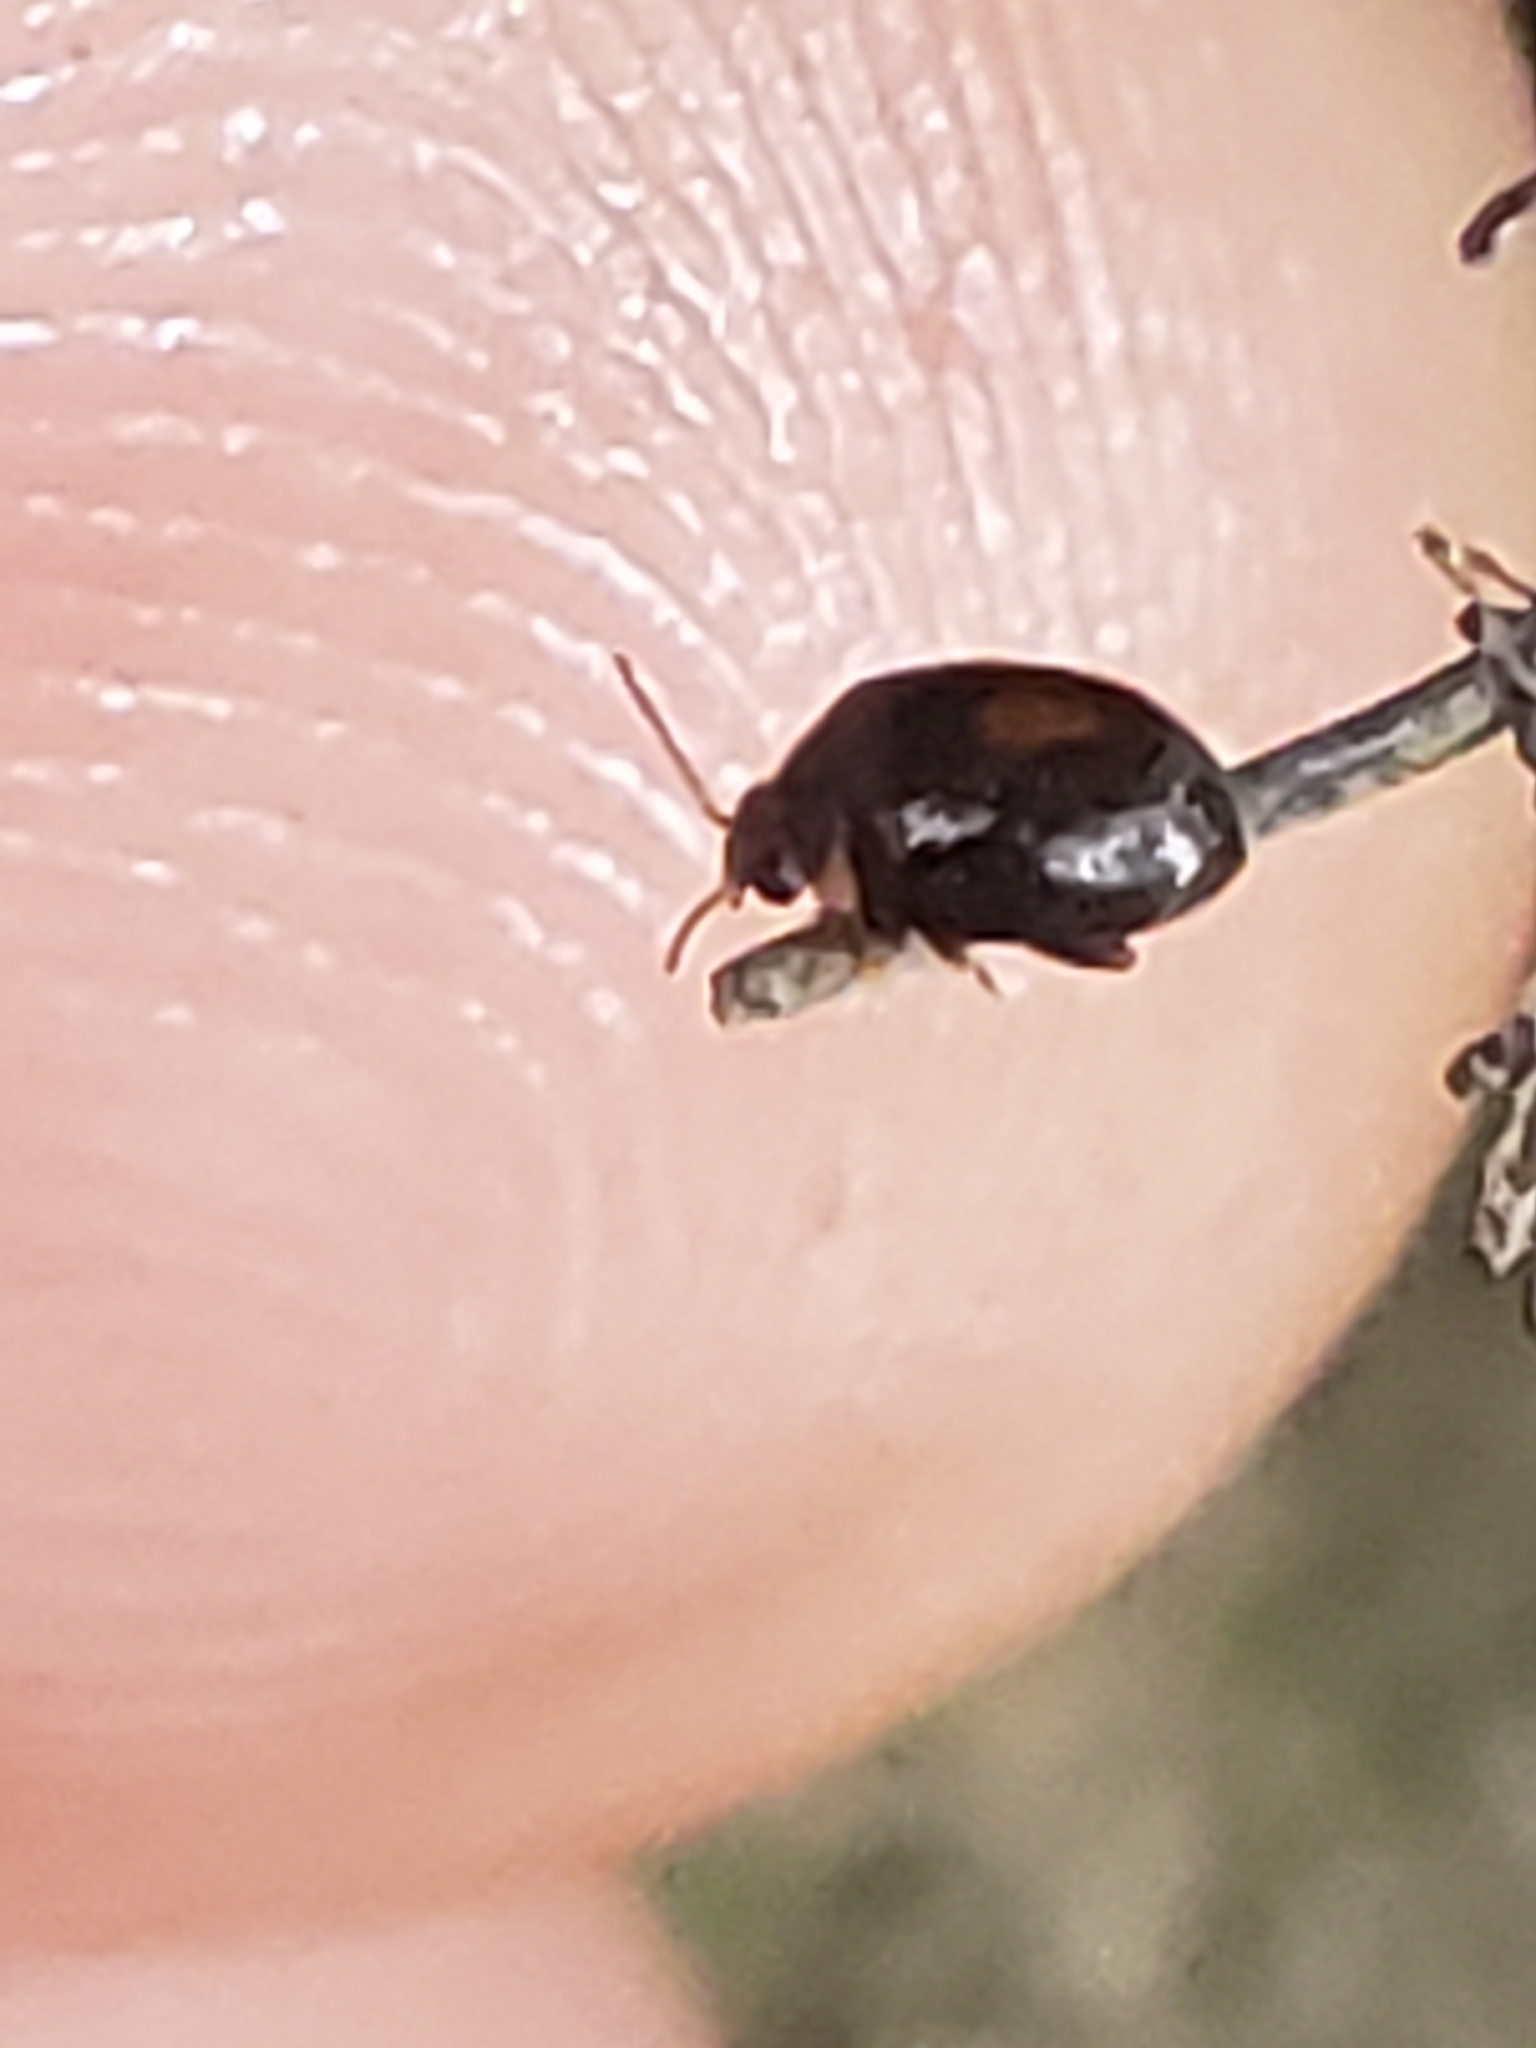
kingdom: Animalia
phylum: Arthropoda
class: Insecta
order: Coleoptera
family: Scirtidae
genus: Scirtes
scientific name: Scirtes orbiculatus
